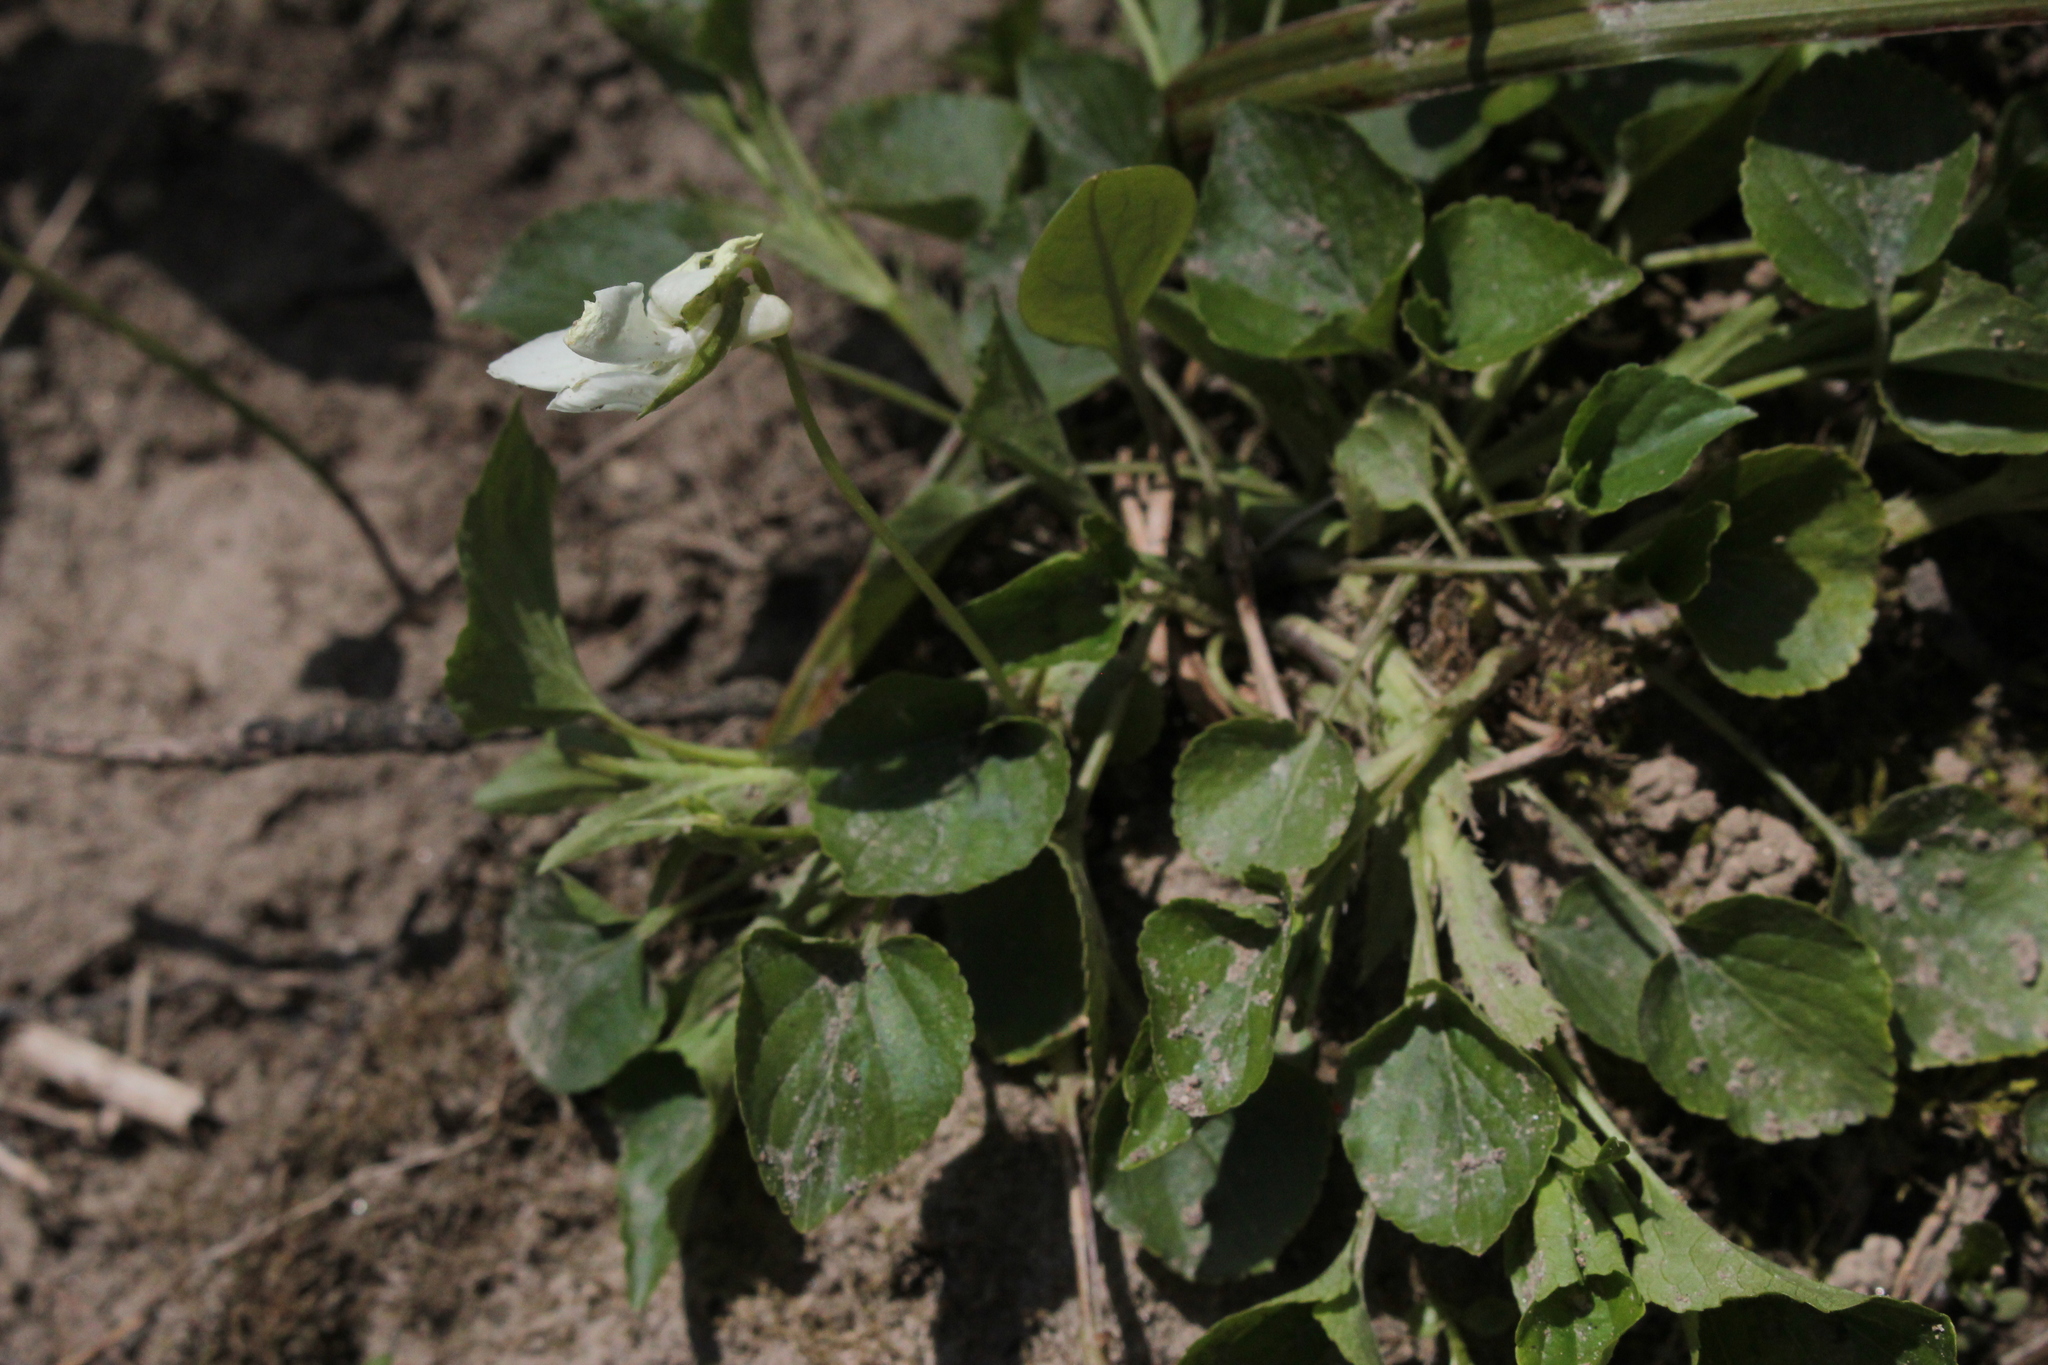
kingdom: Plantae
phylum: Tracheophyta
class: Magnoliopsida
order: Malpighiales
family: Violaceae
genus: Viola
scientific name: Viola striata
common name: Cream violet
